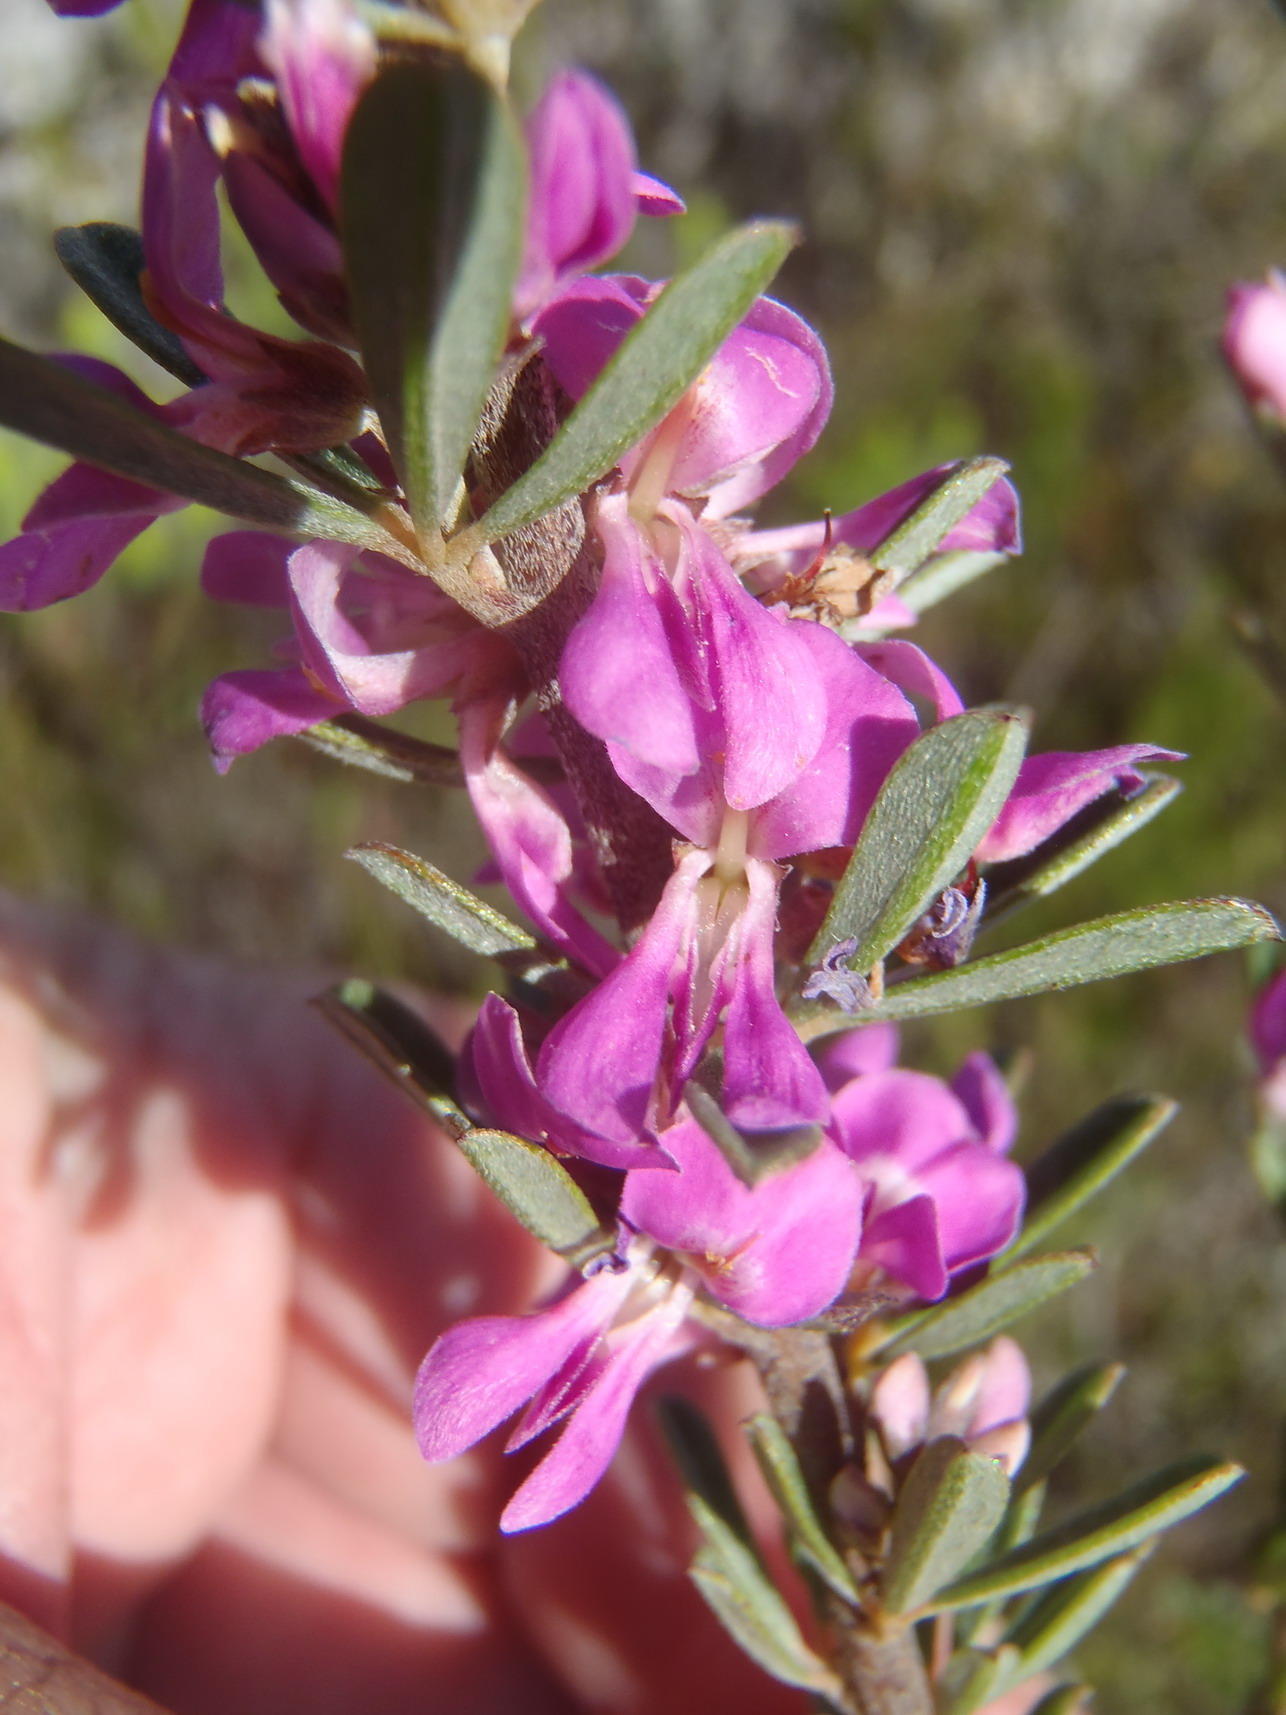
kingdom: Plantae
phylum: Tracheophyta
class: Magnoliopsida
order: Fabales
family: Fabaceae
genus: Indigofera
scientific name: Indigofera flabellata
